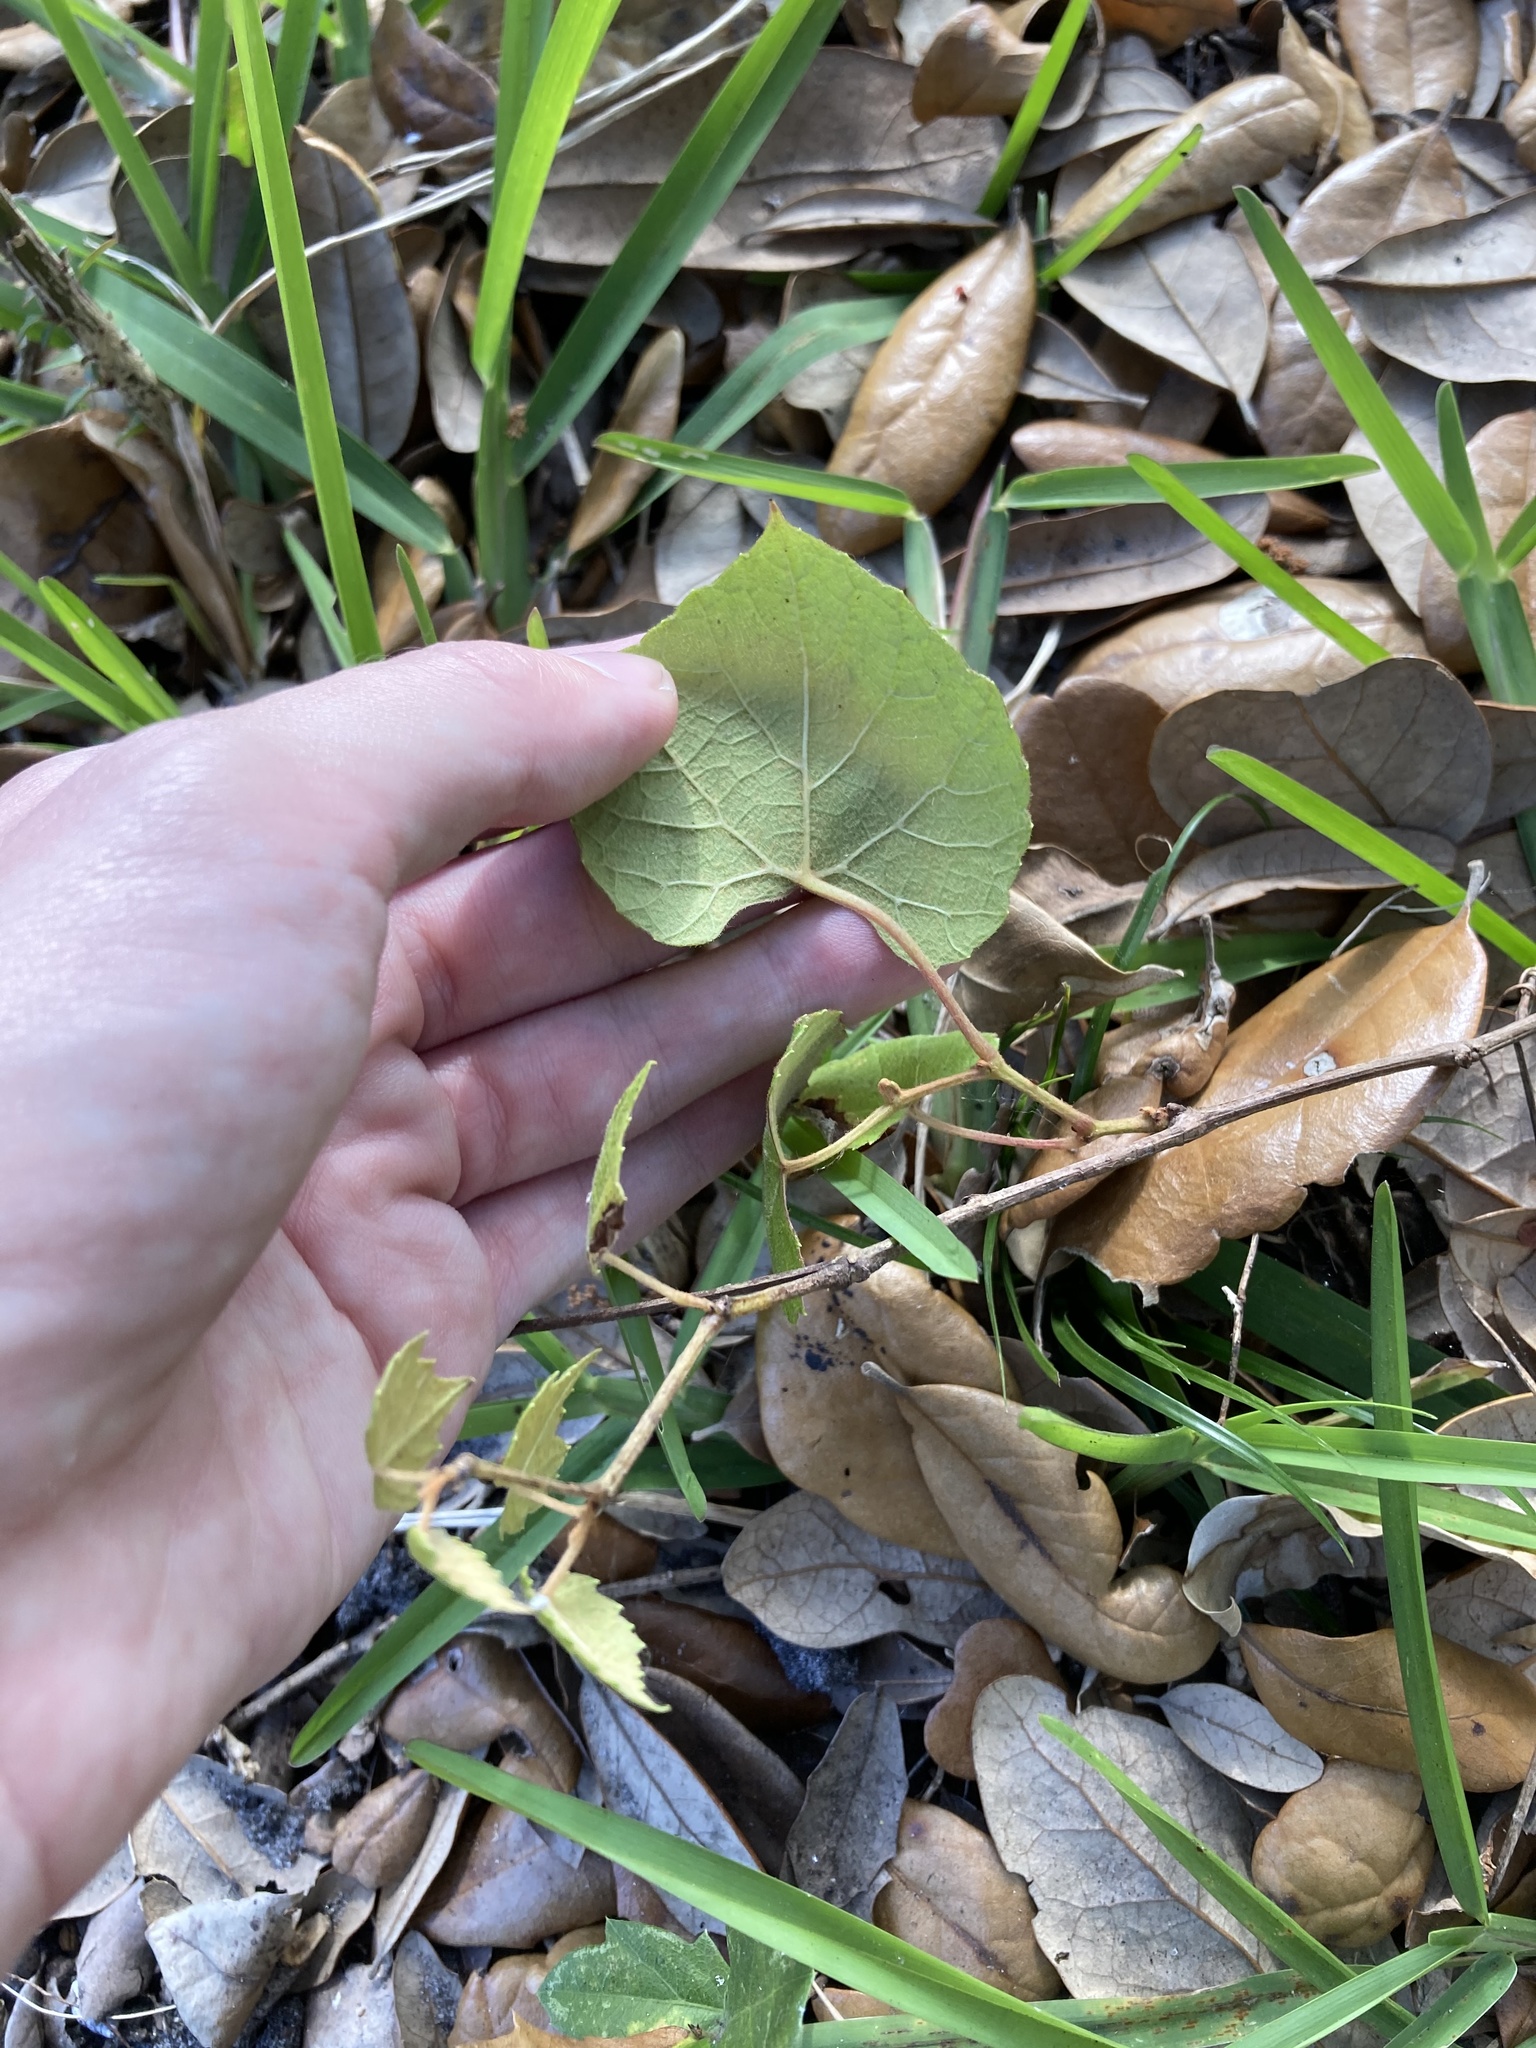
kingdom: Plantae
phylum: Tracheophyta
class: Magnoliopsida
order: Vitales
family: Vitaceae
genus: Vitis
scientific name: Vitis cinerea
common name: Ashy grape
